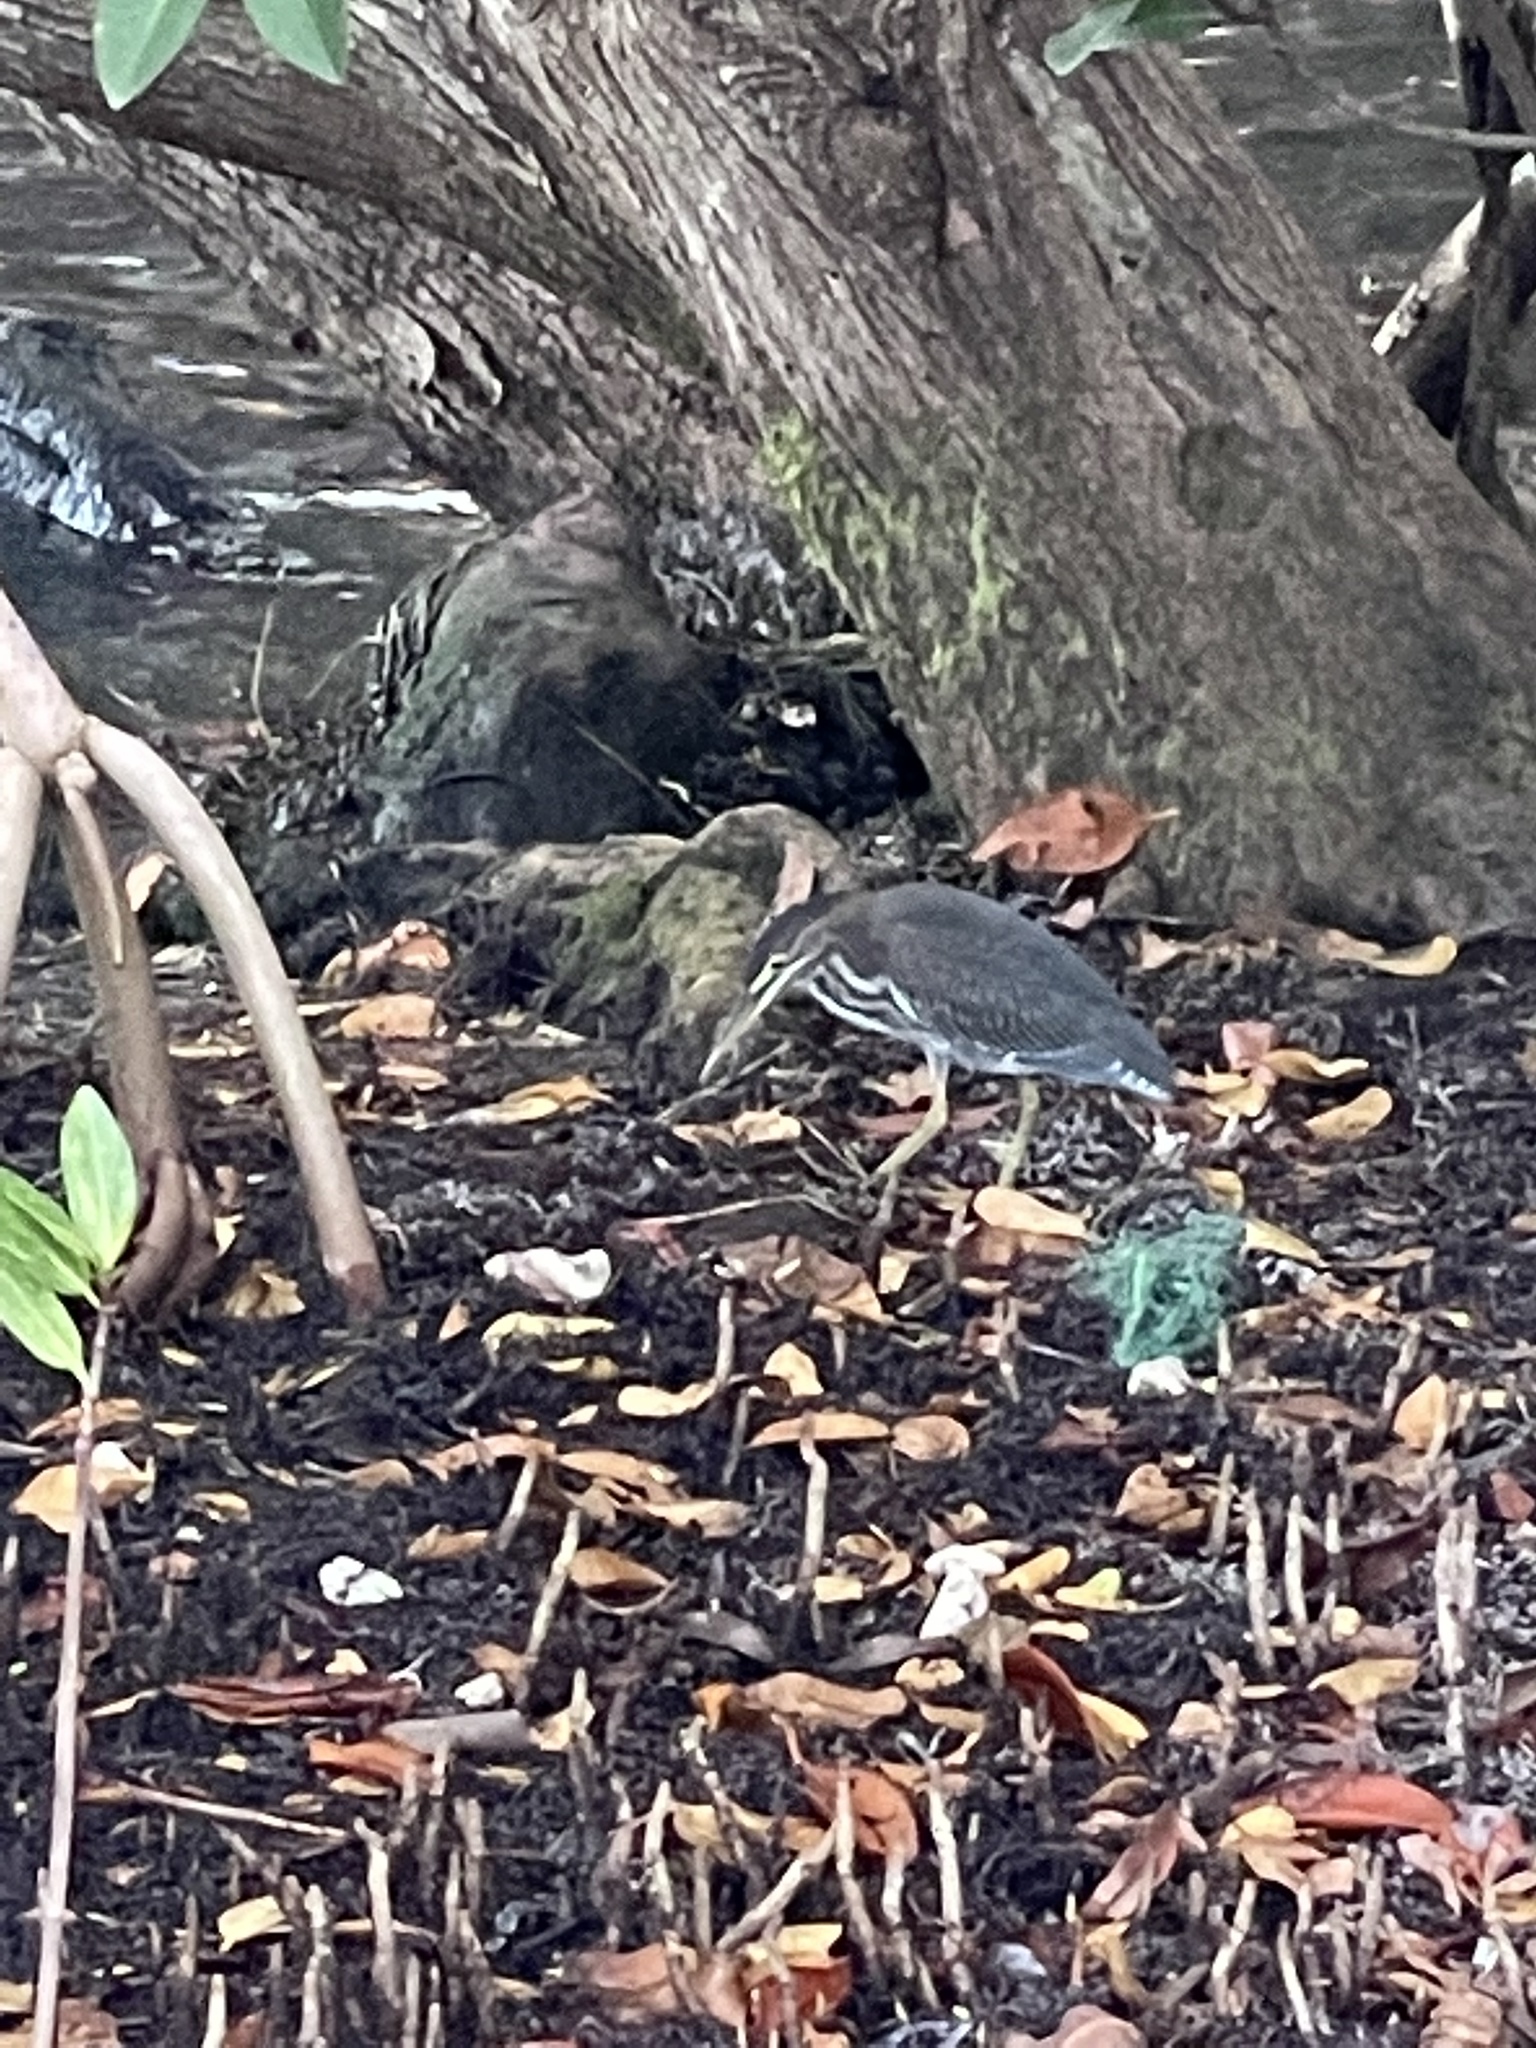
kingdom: Animalia
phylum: Chordata
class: Aves
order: Pelecaniformes
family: Ardeidae
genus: Butorides
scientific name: Butorides virescens
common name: Green heron
